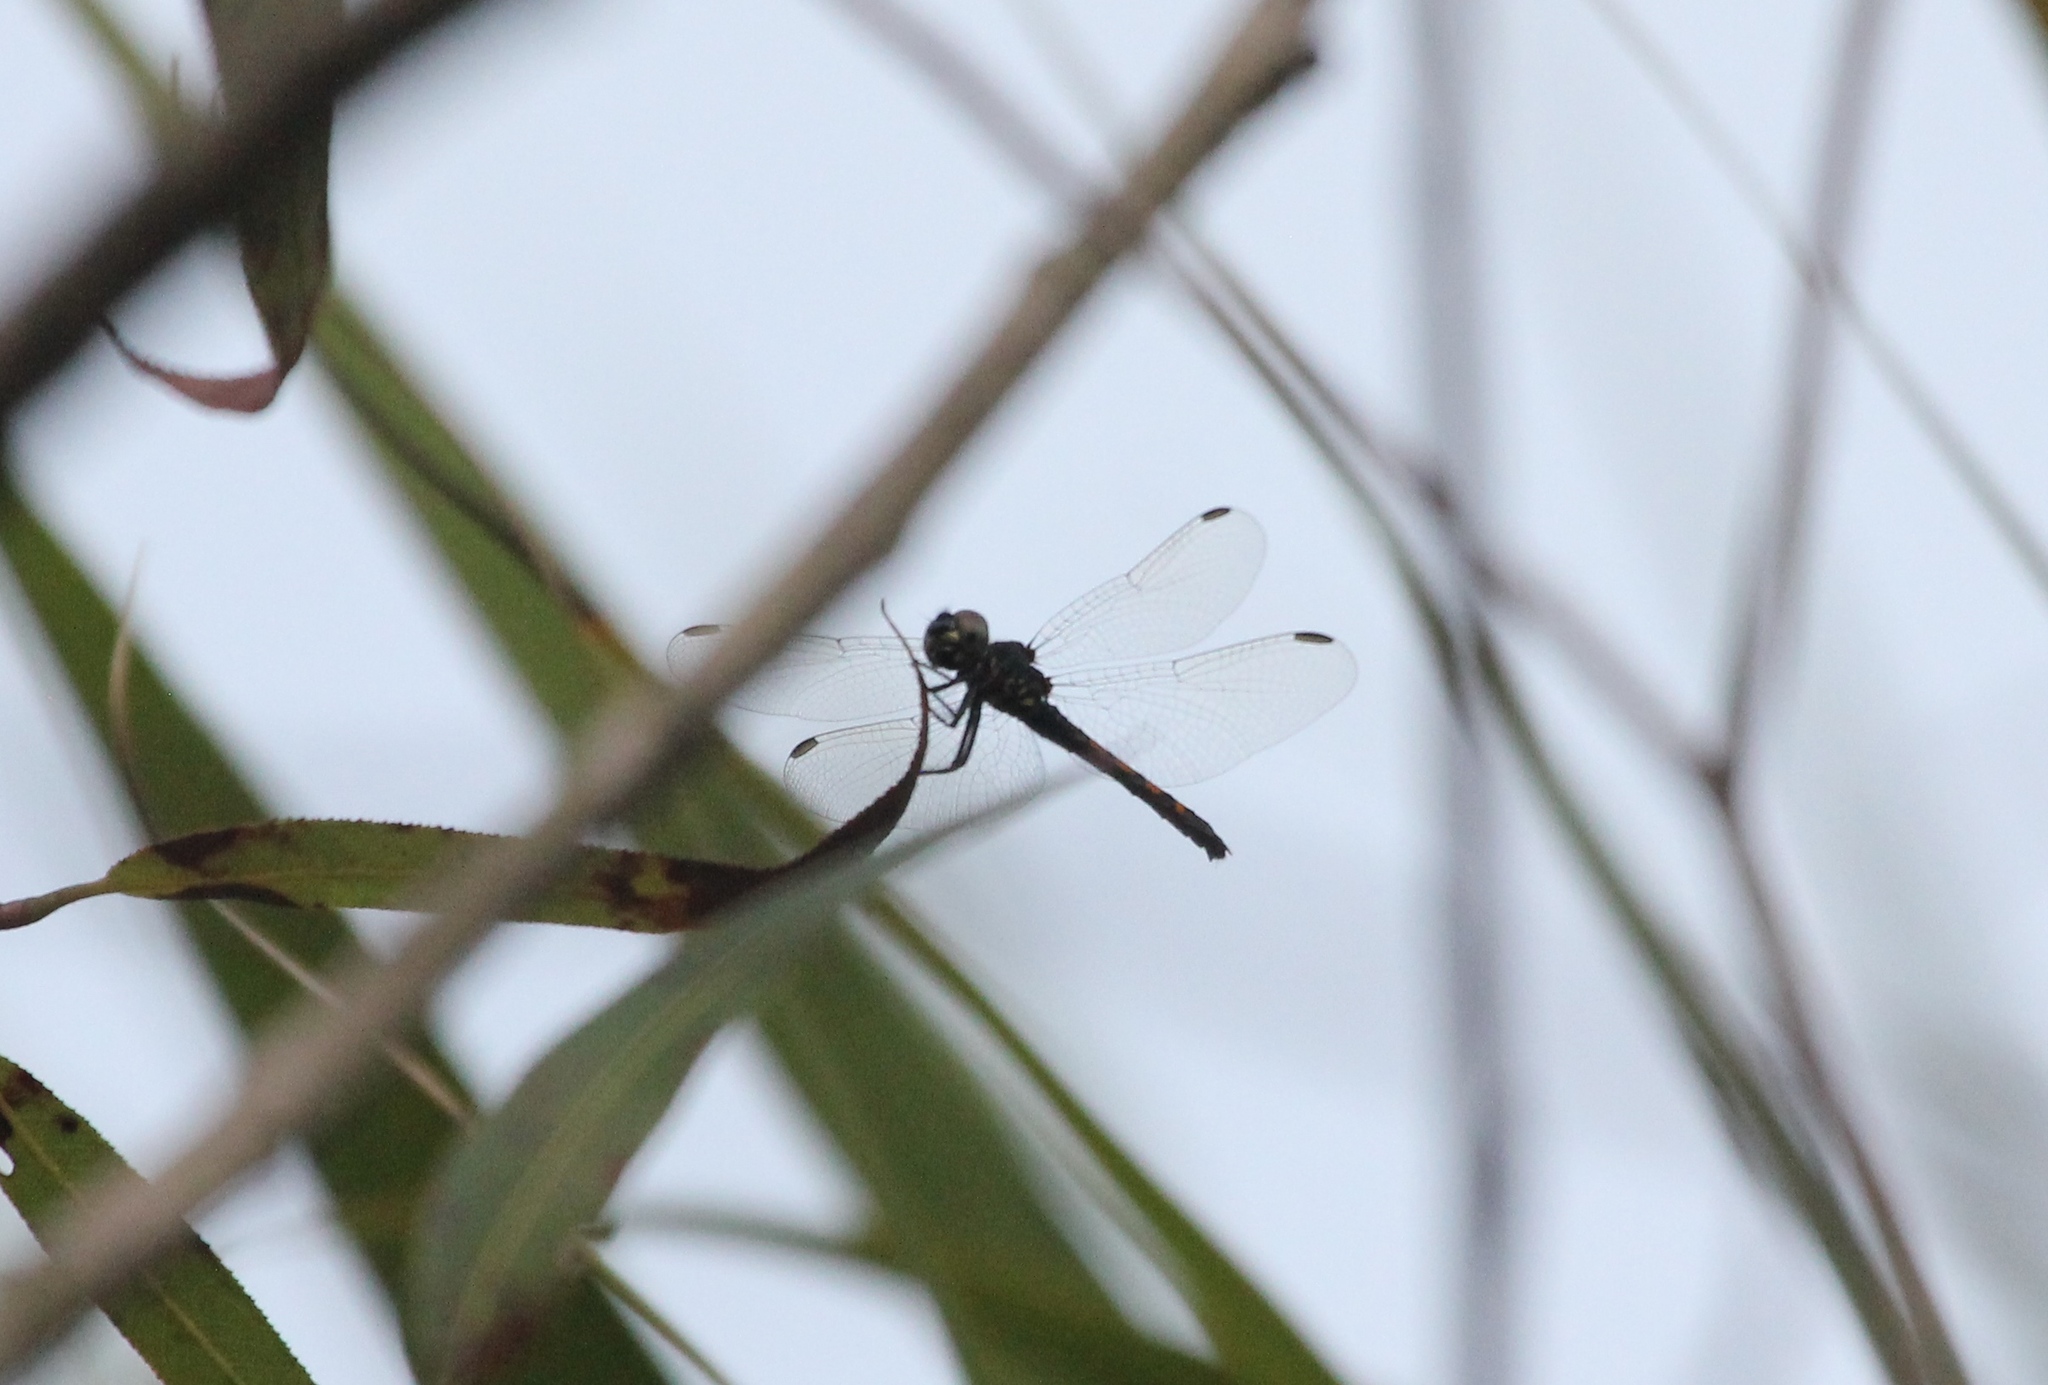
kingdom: Animalia
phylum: Arthropoda
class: Insecta
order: Odonata
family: Libellulidae
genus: Erythrodiplax
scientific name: Erythrodiplax berenice
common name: Seaside dragonlet
